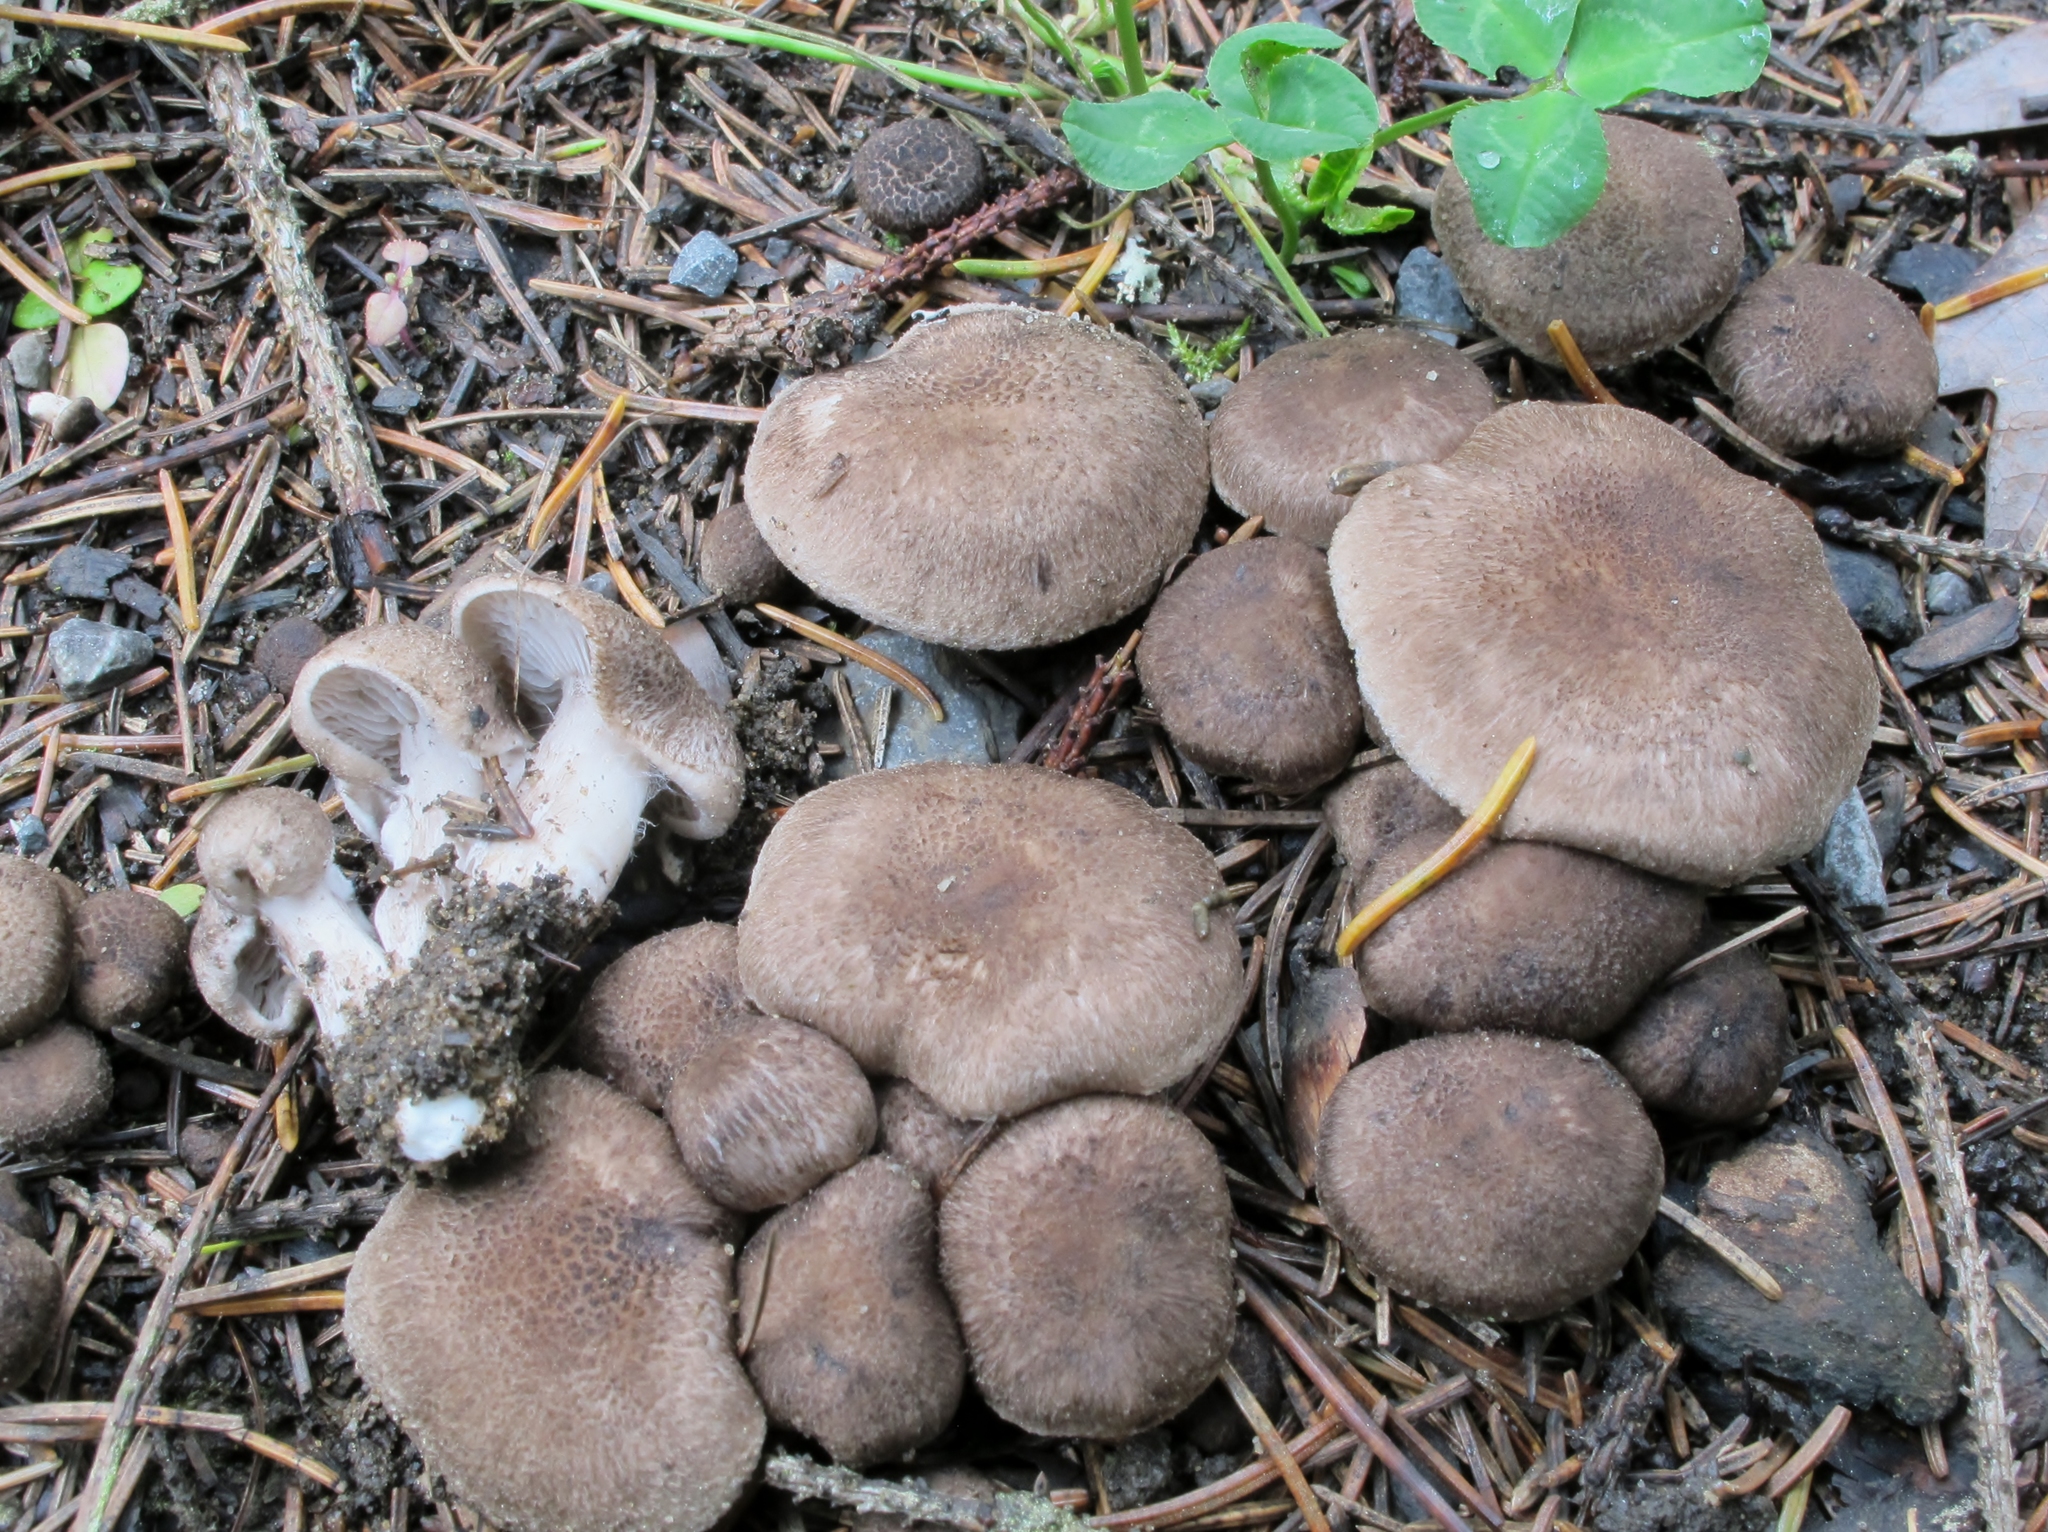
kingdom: Fungi
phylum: Basidiomycota
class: Agaricomycetes
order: Agaricales
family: Tricholomataceae
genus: Tricholoma
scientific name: Tricholoma terreum
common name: Grey knight
